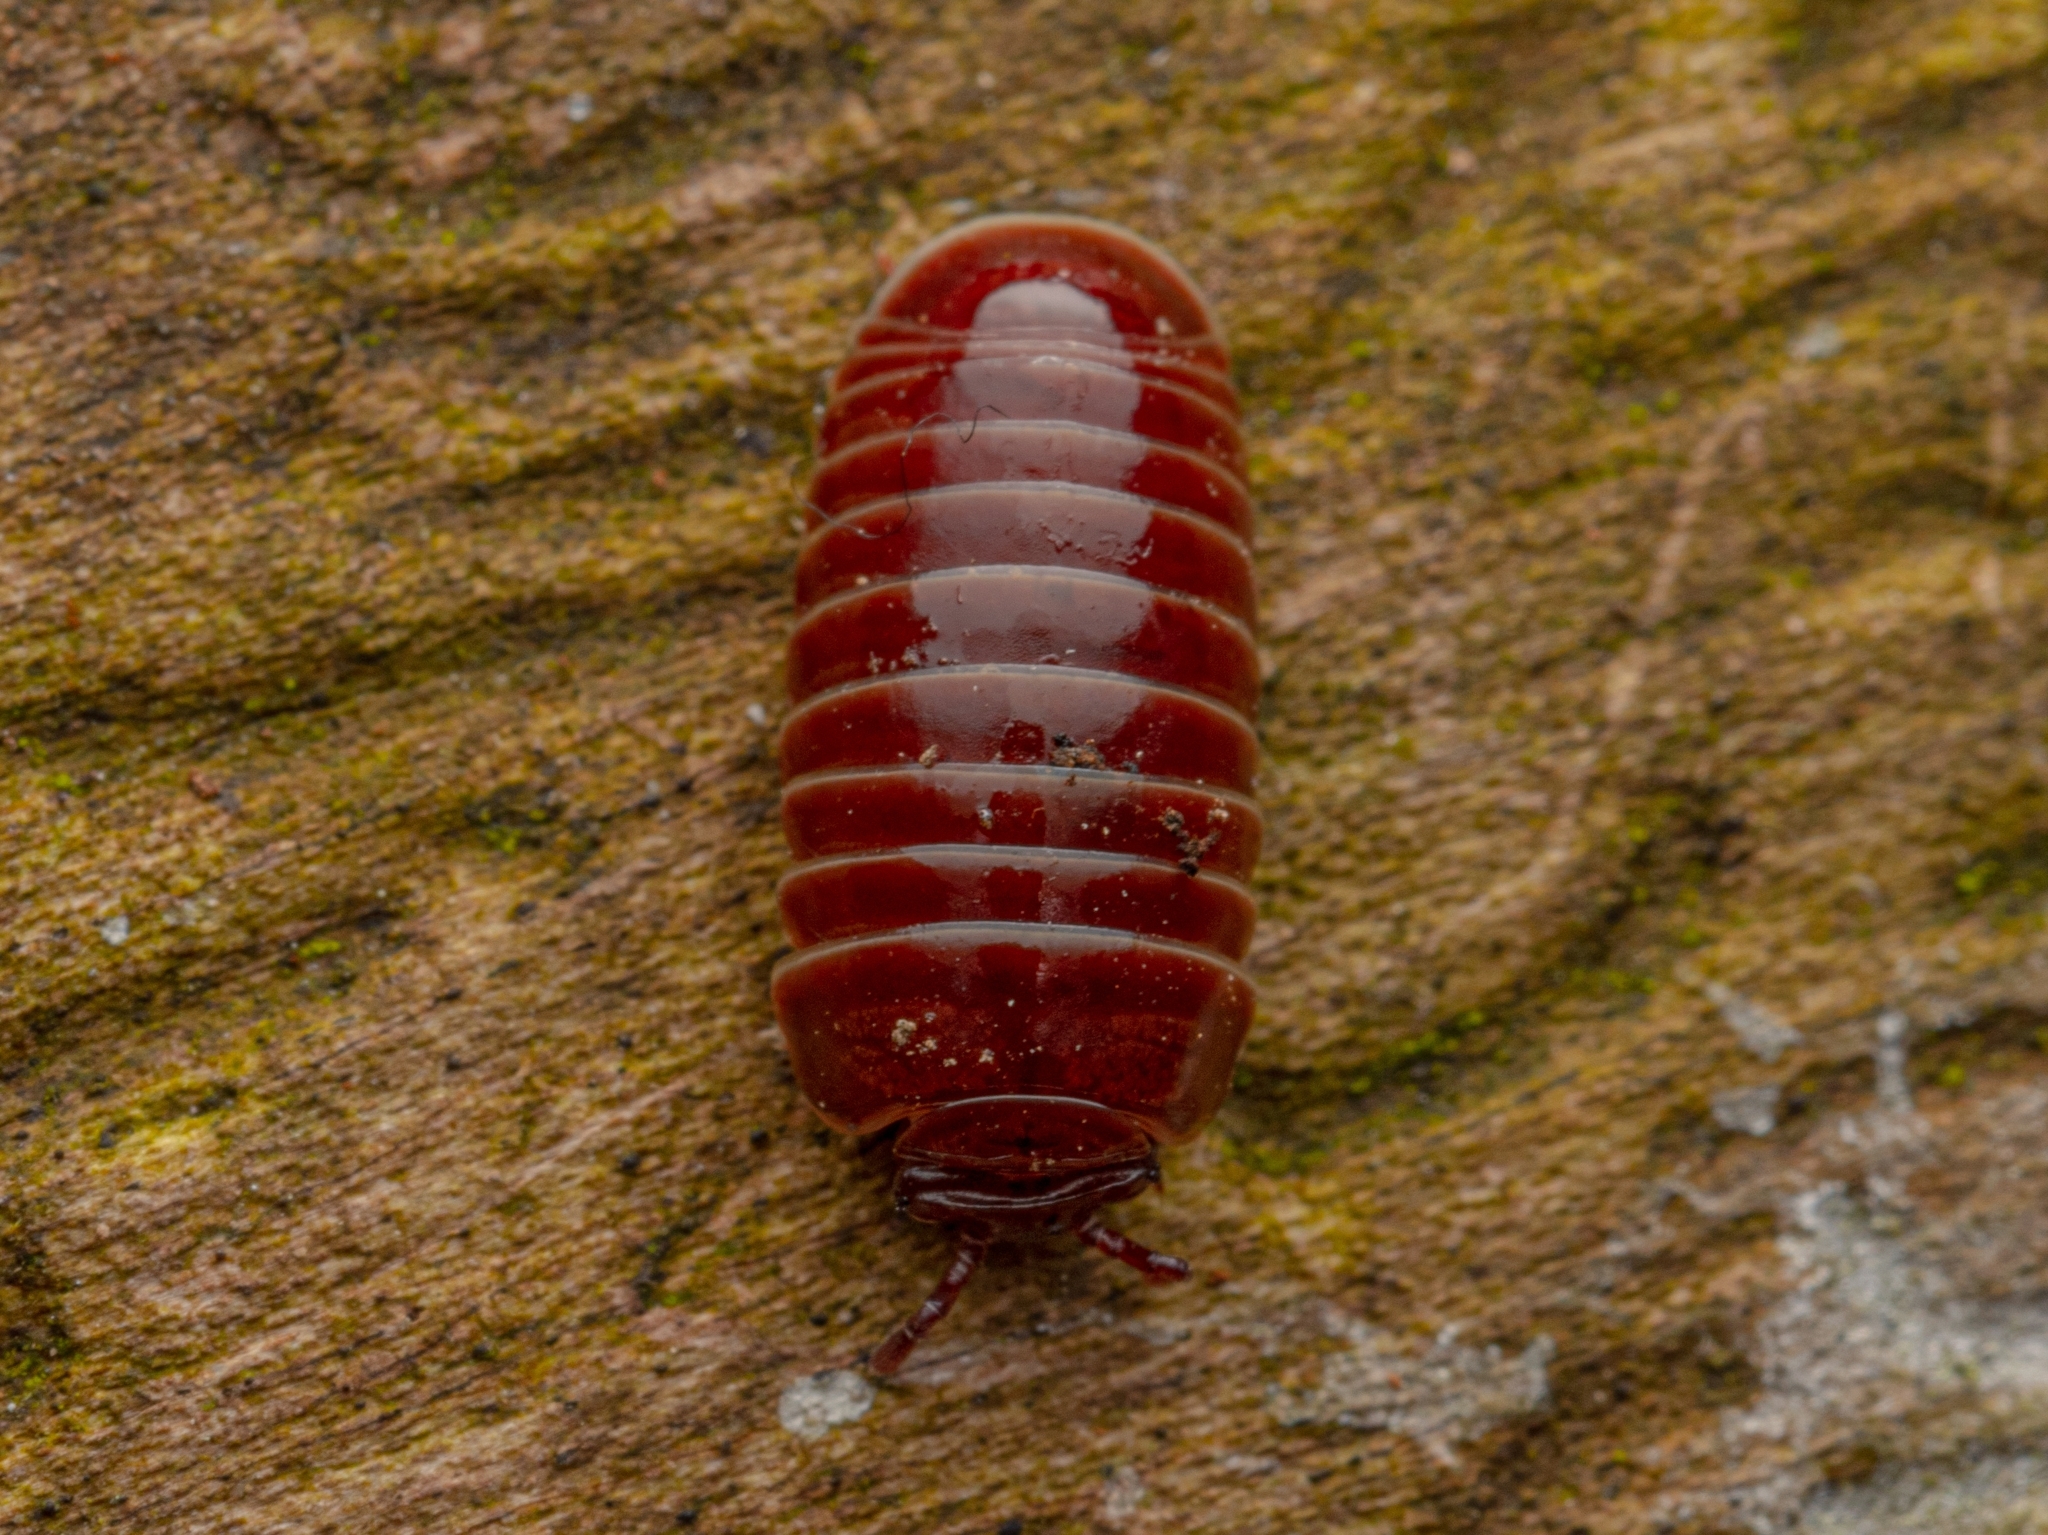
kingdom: Animalia
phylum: Arthropoda
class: Diplopoda
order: Glomerida
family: Glomeridae
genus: Glomeris
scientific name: Glomeris marginata
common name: Bordered pill millipede
